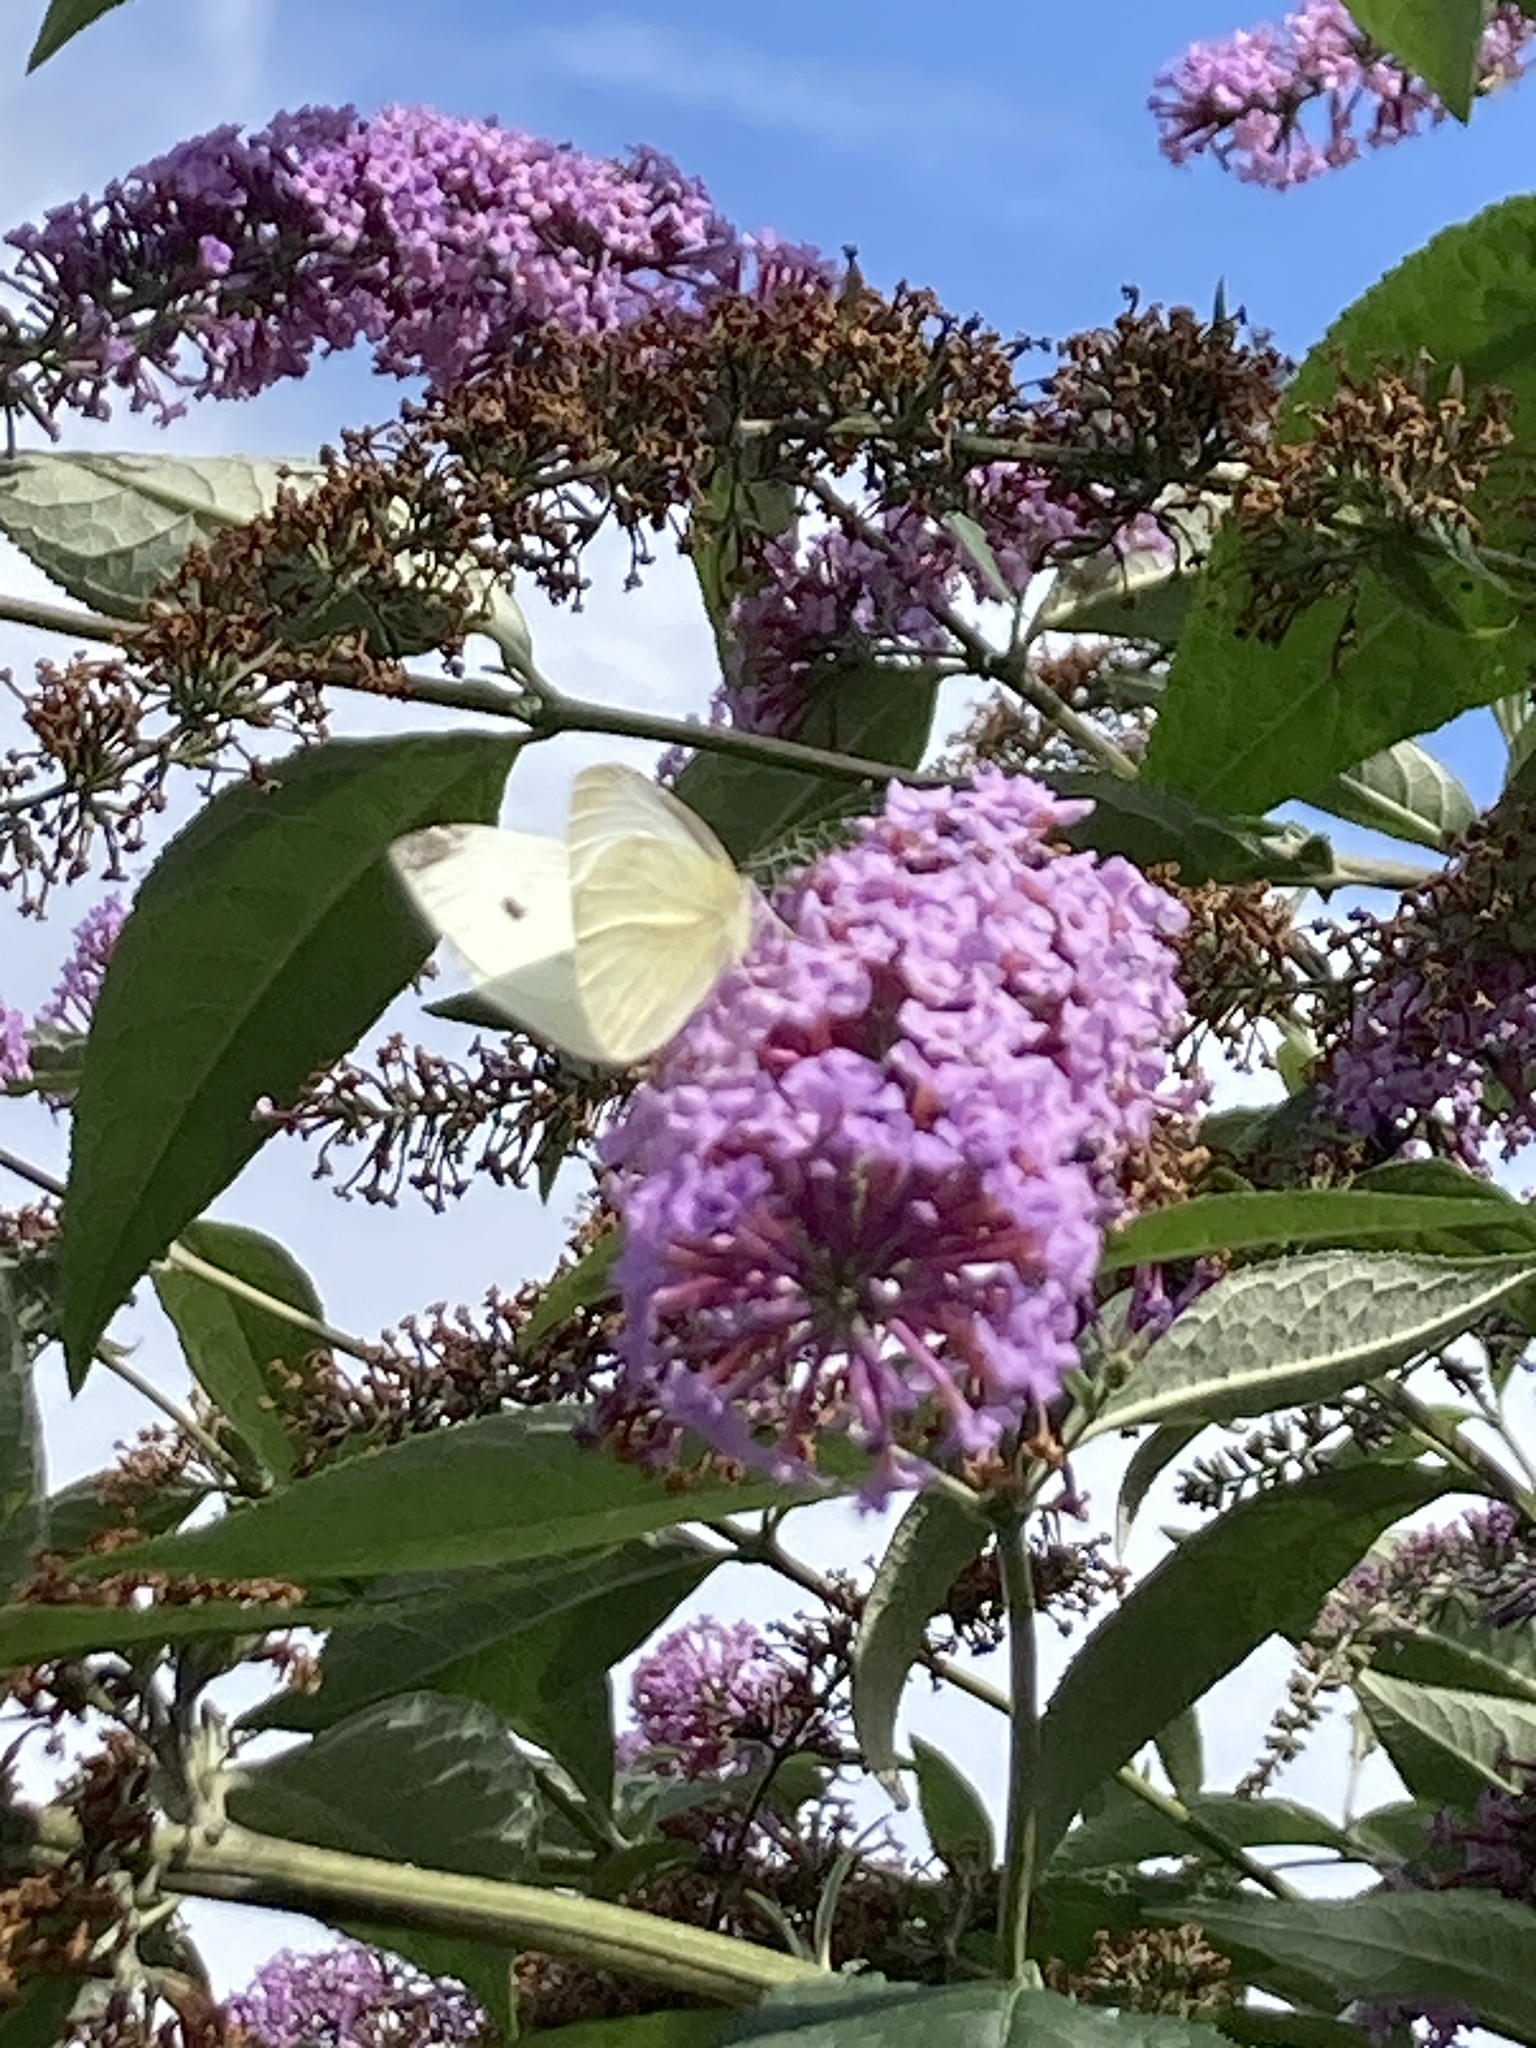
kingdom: Animalia
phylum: Arthropoda
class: Insecta
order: Lepidoptera
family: Pieridae
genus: Pieris
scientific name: Pieris rapae
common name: Small white
